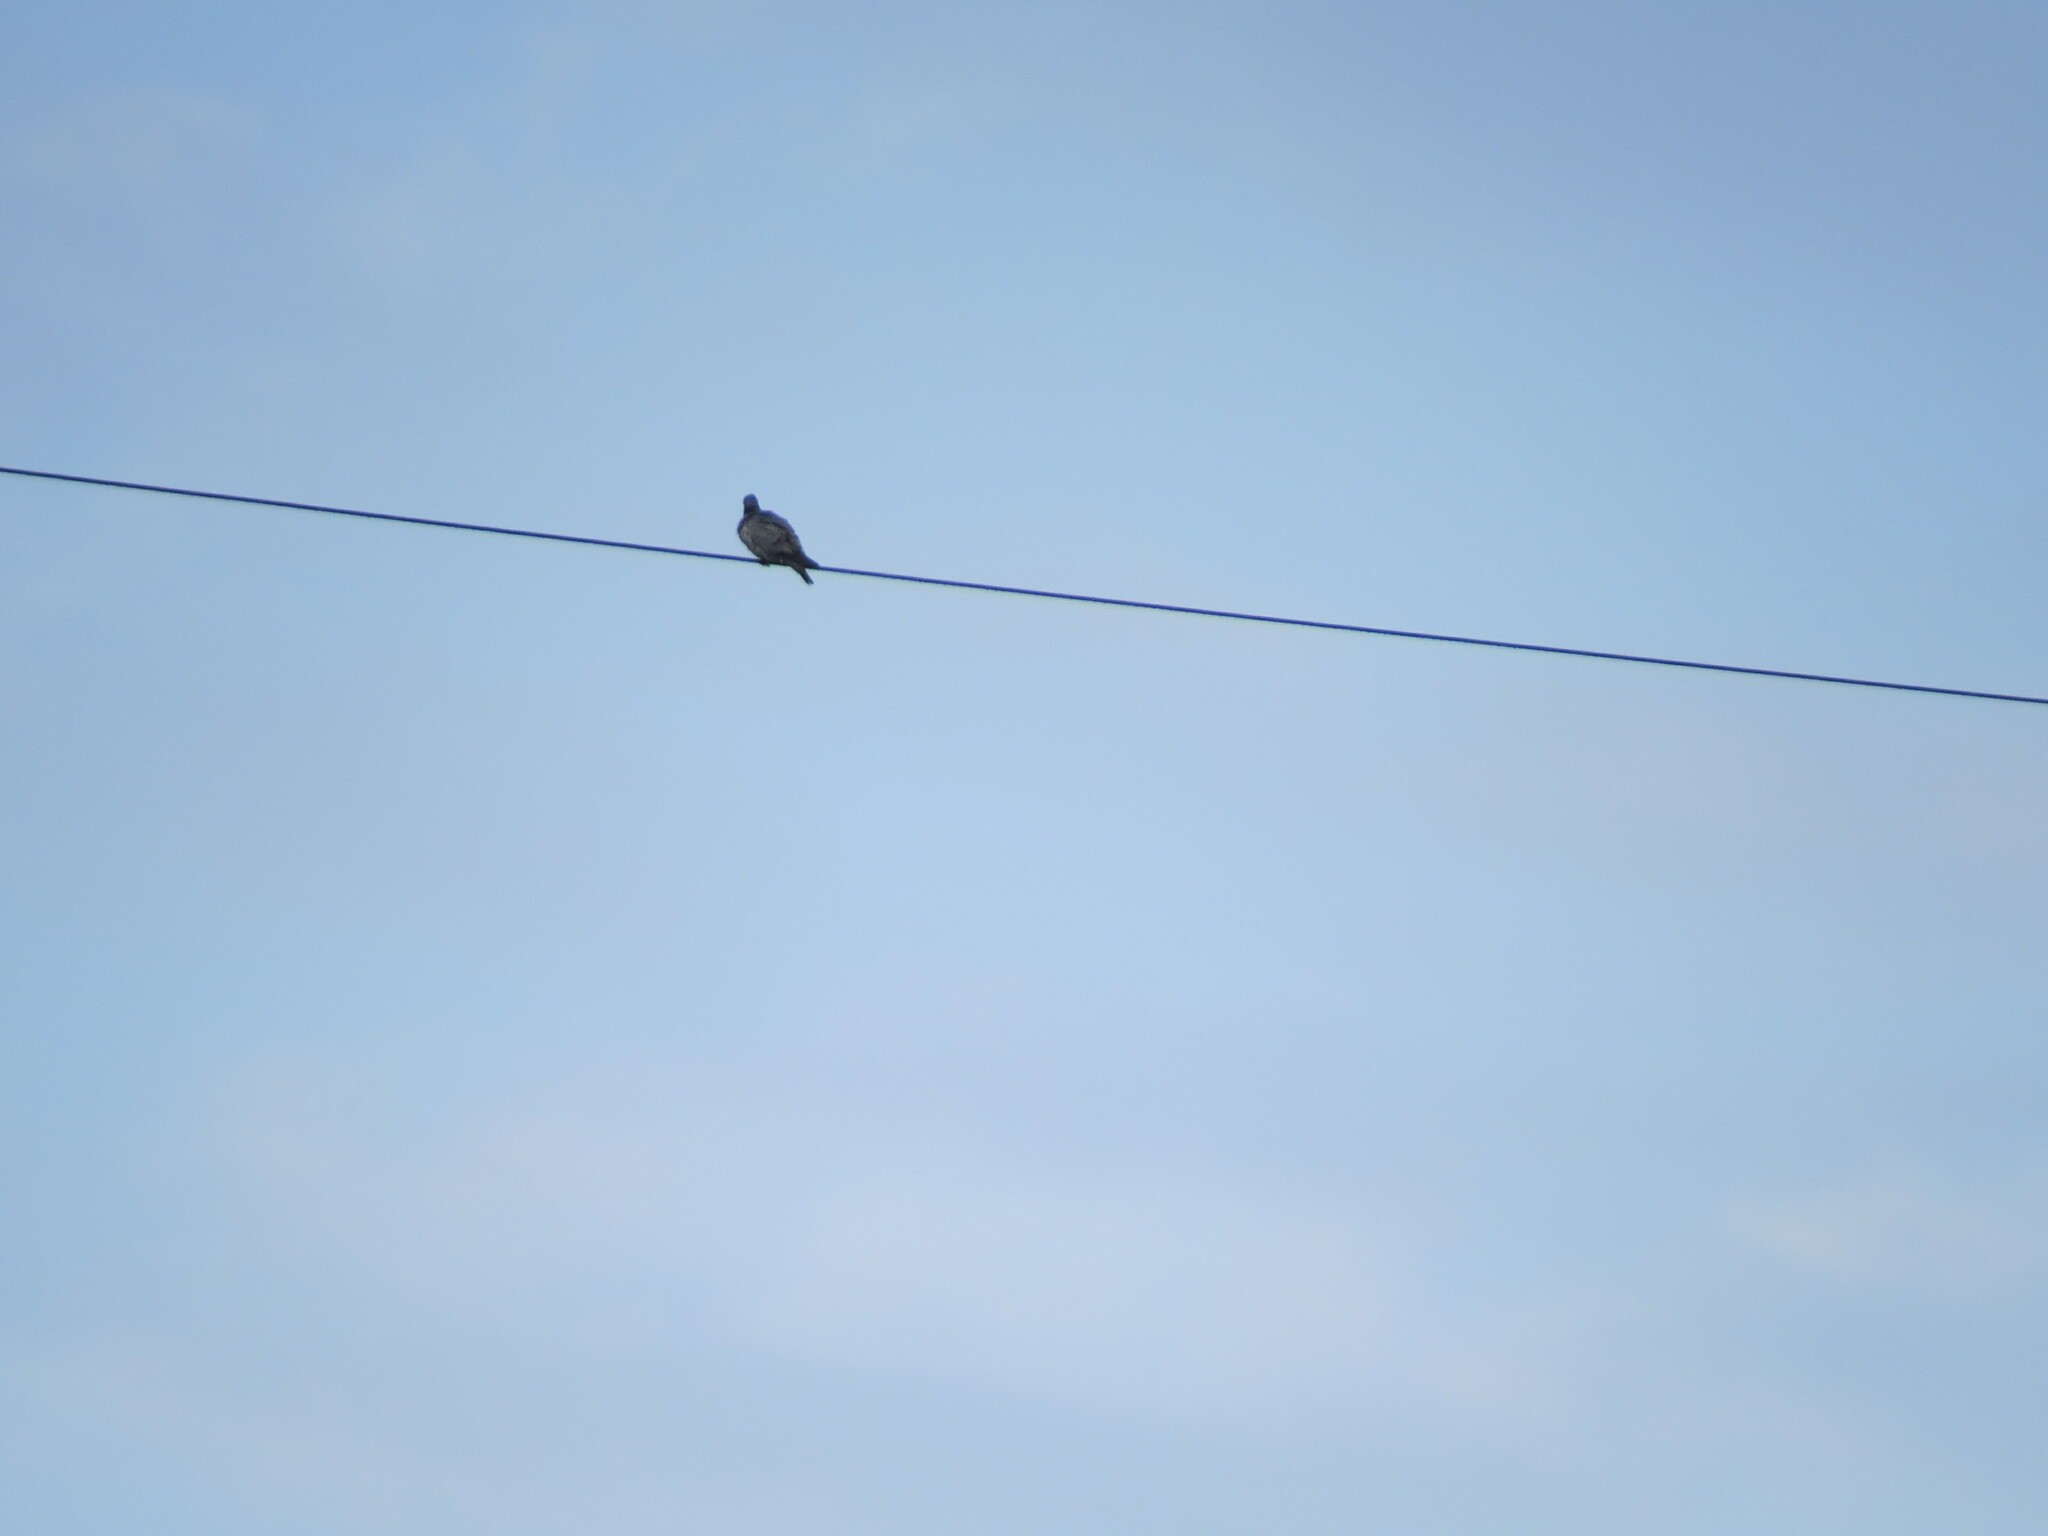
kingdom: Animalia
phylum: Chordata
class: Aves
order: Columbiformes
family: Columbidae
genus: Columba
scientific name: Columba oenas
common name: Stock dove
